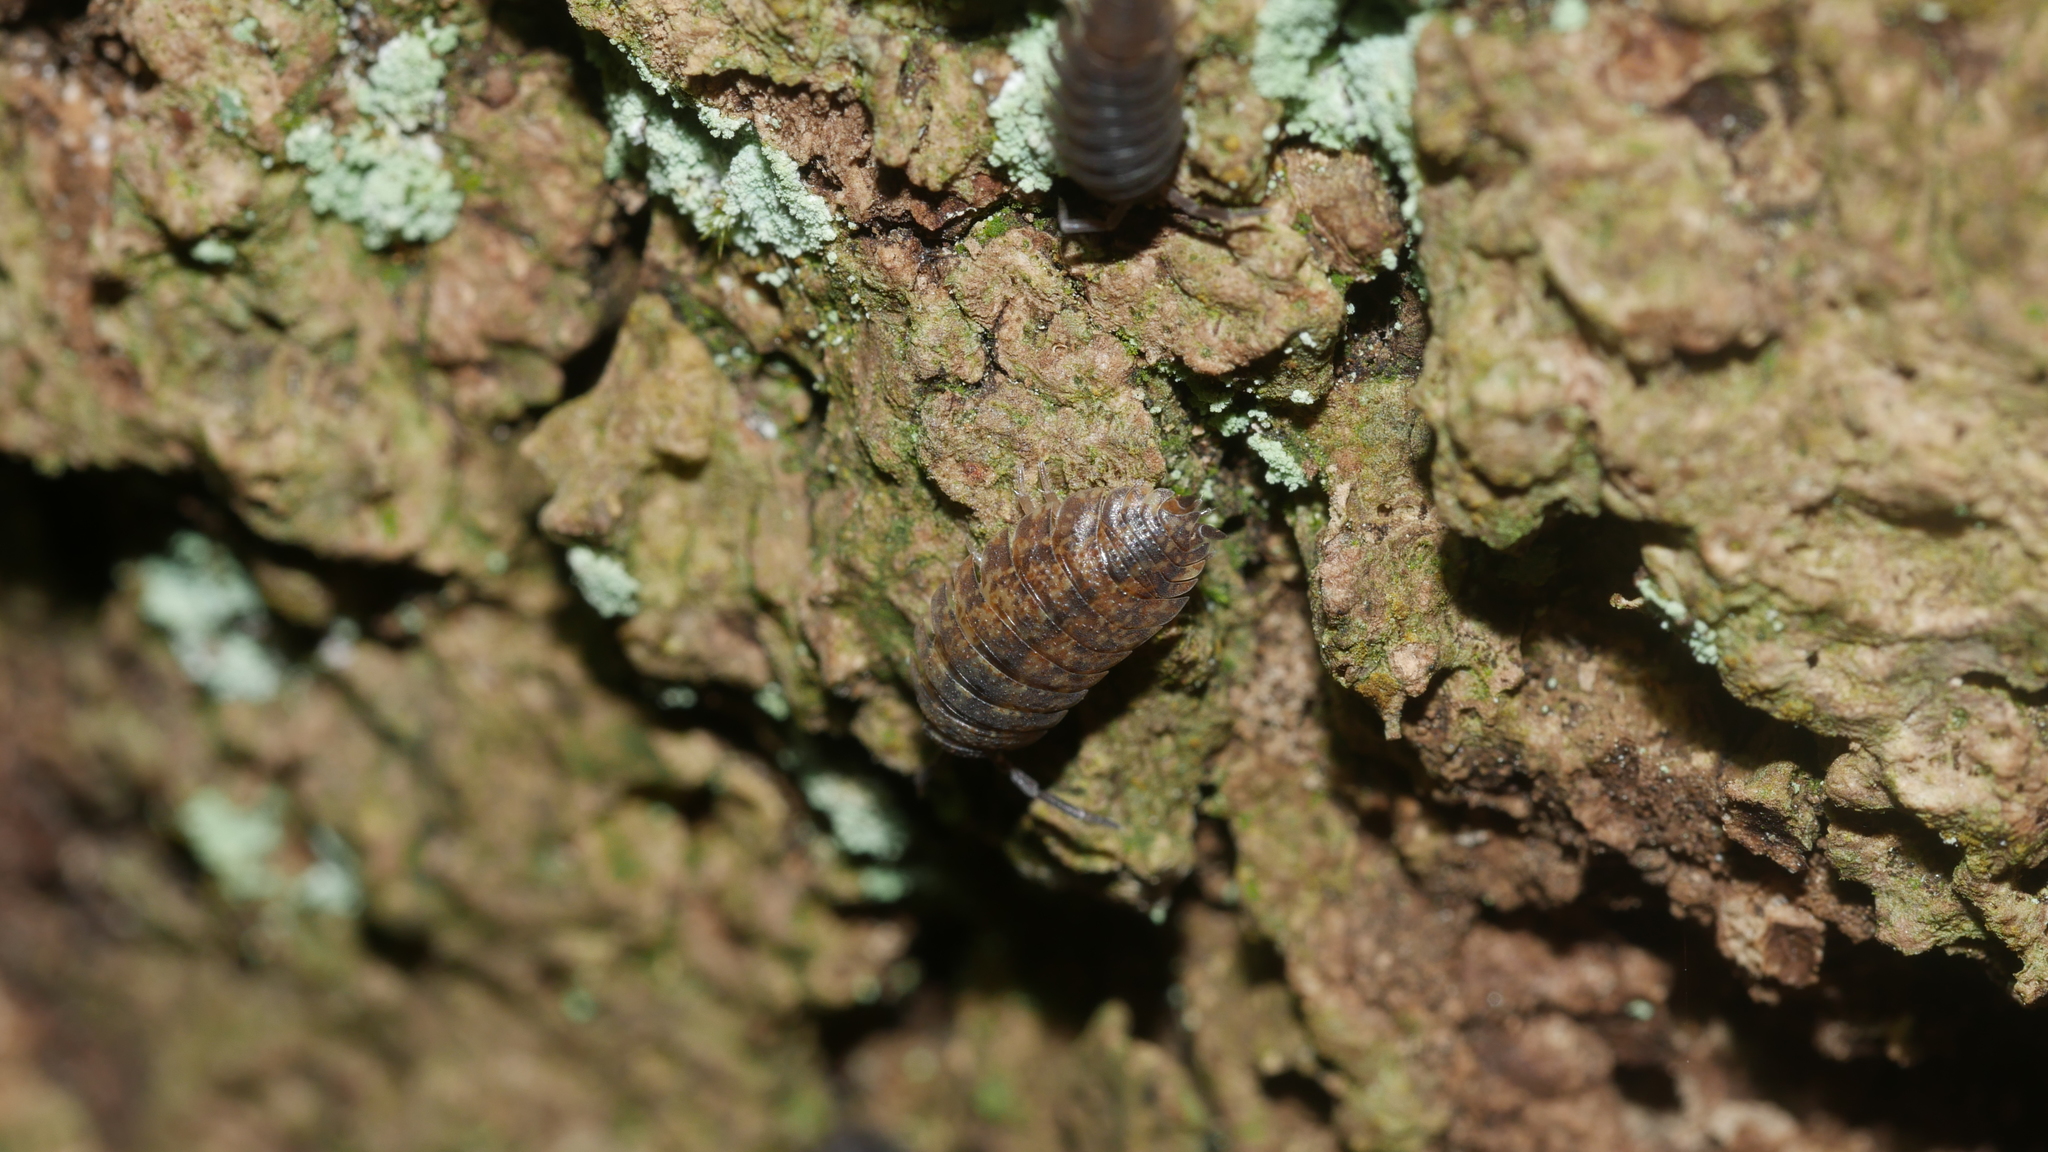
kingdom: Animalia
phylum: Arthropoda
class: Malacostraca
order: Isopoda
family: Porcellionidae
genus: Porcellio
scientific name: Porcellio scaber
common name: Common rough woodlouse
